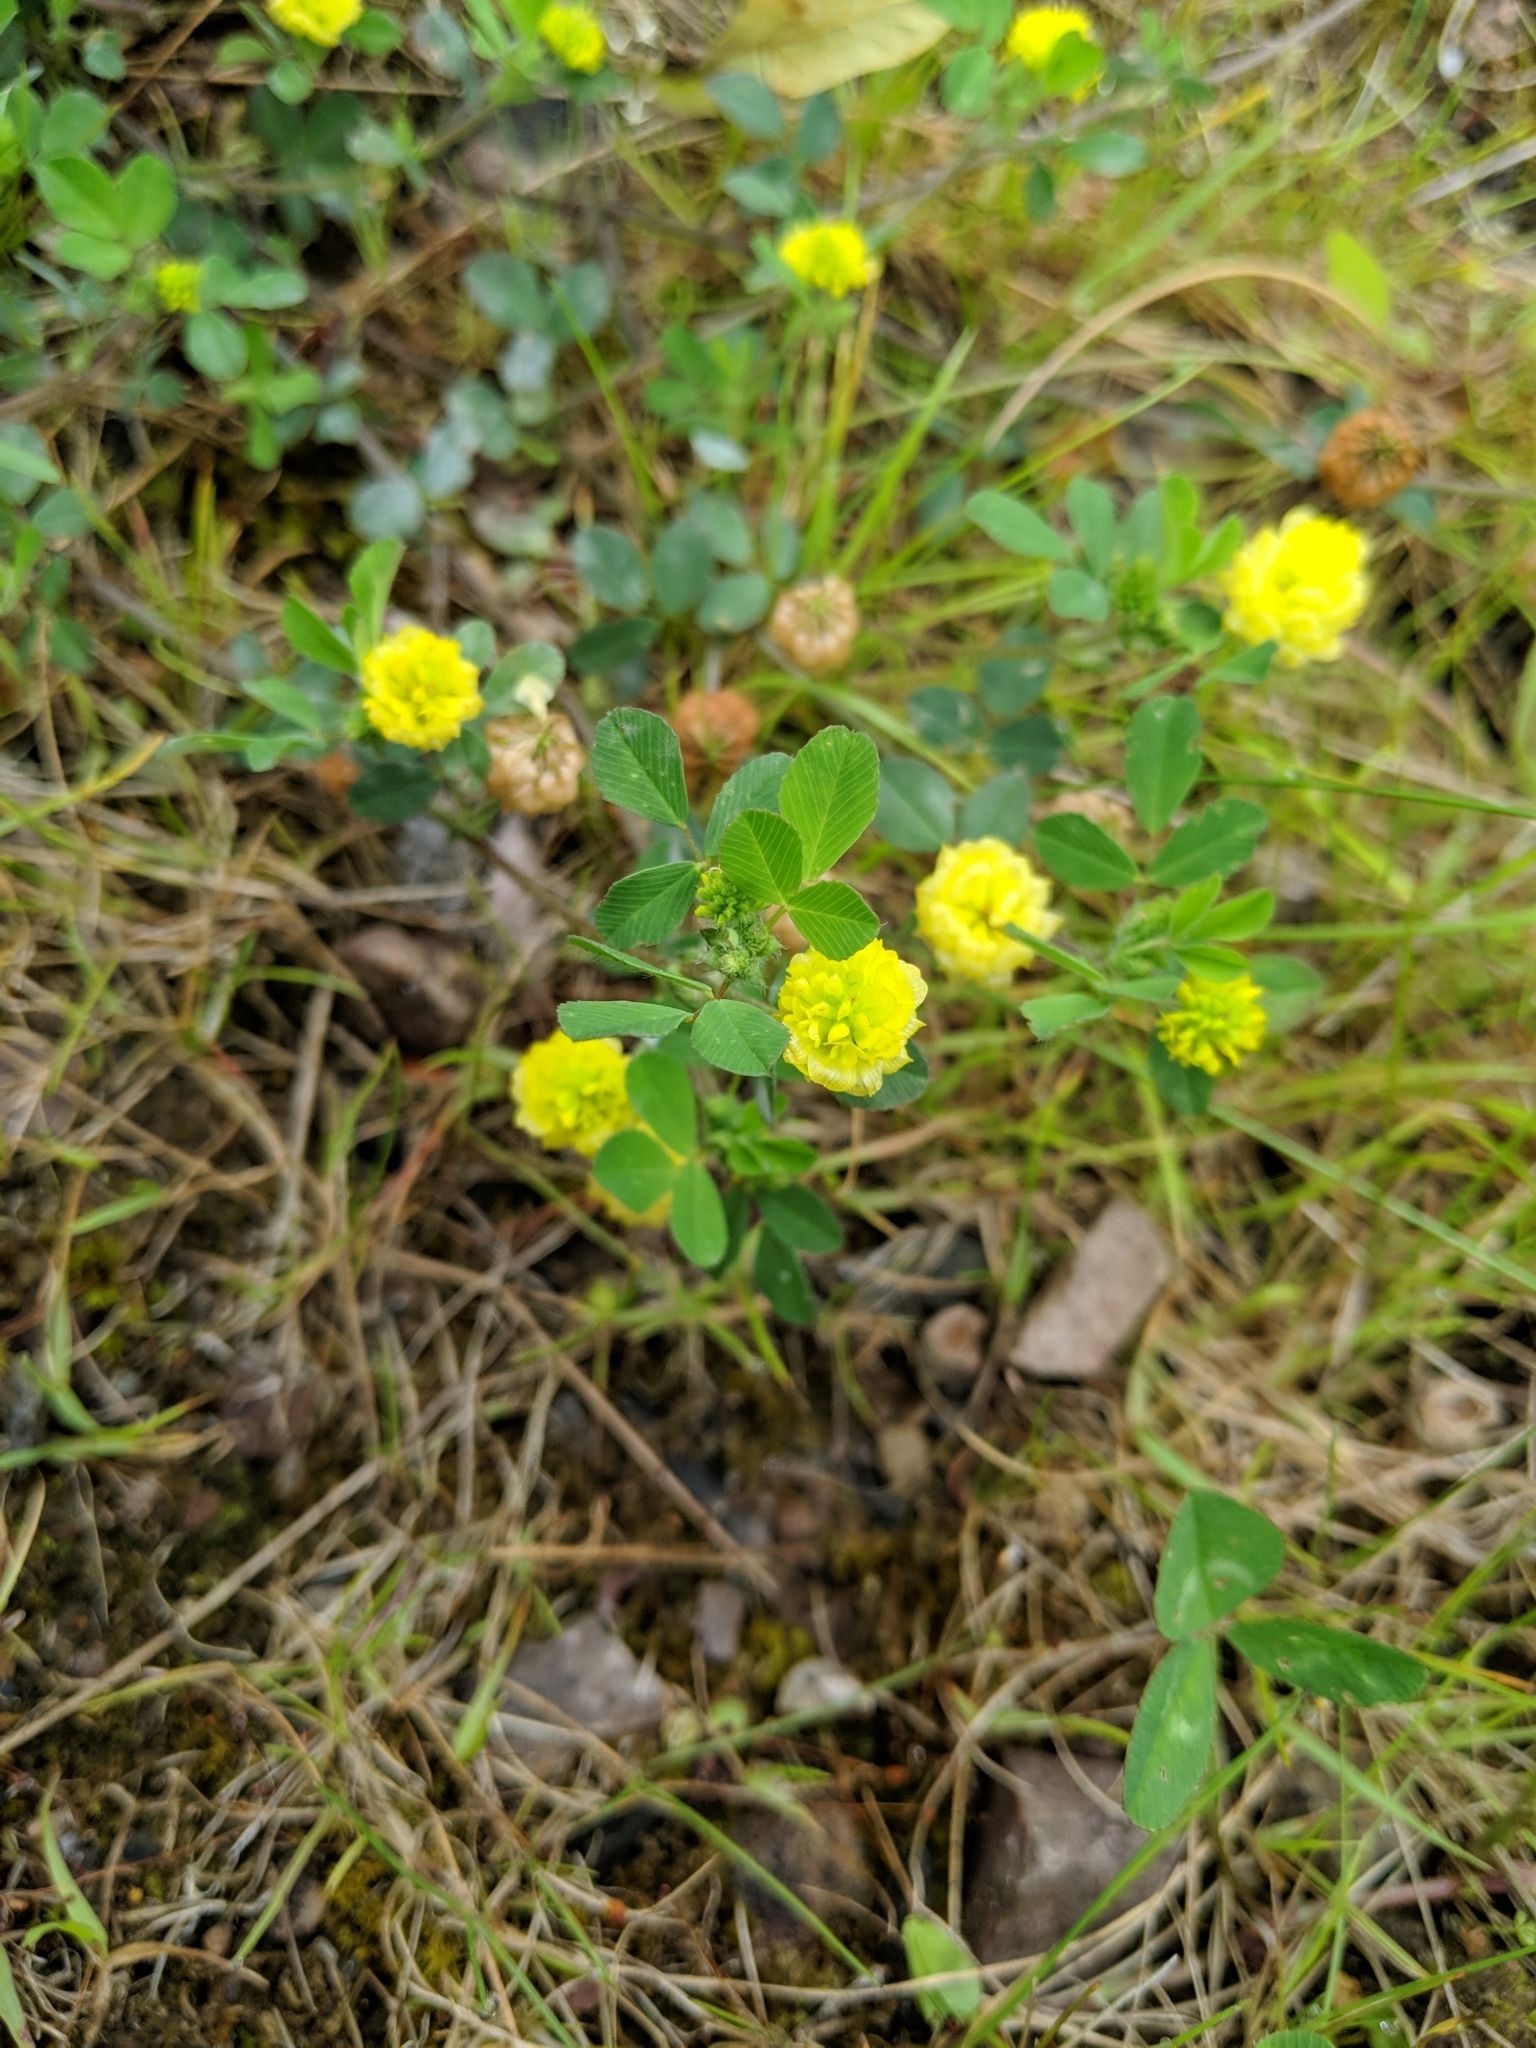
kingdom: Plantae
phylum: Tracheophyta
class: Magnoliopsida
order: Fabales
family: Fabaceae
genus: Trifolium
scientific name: Trifolium campestre
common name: Field clover
